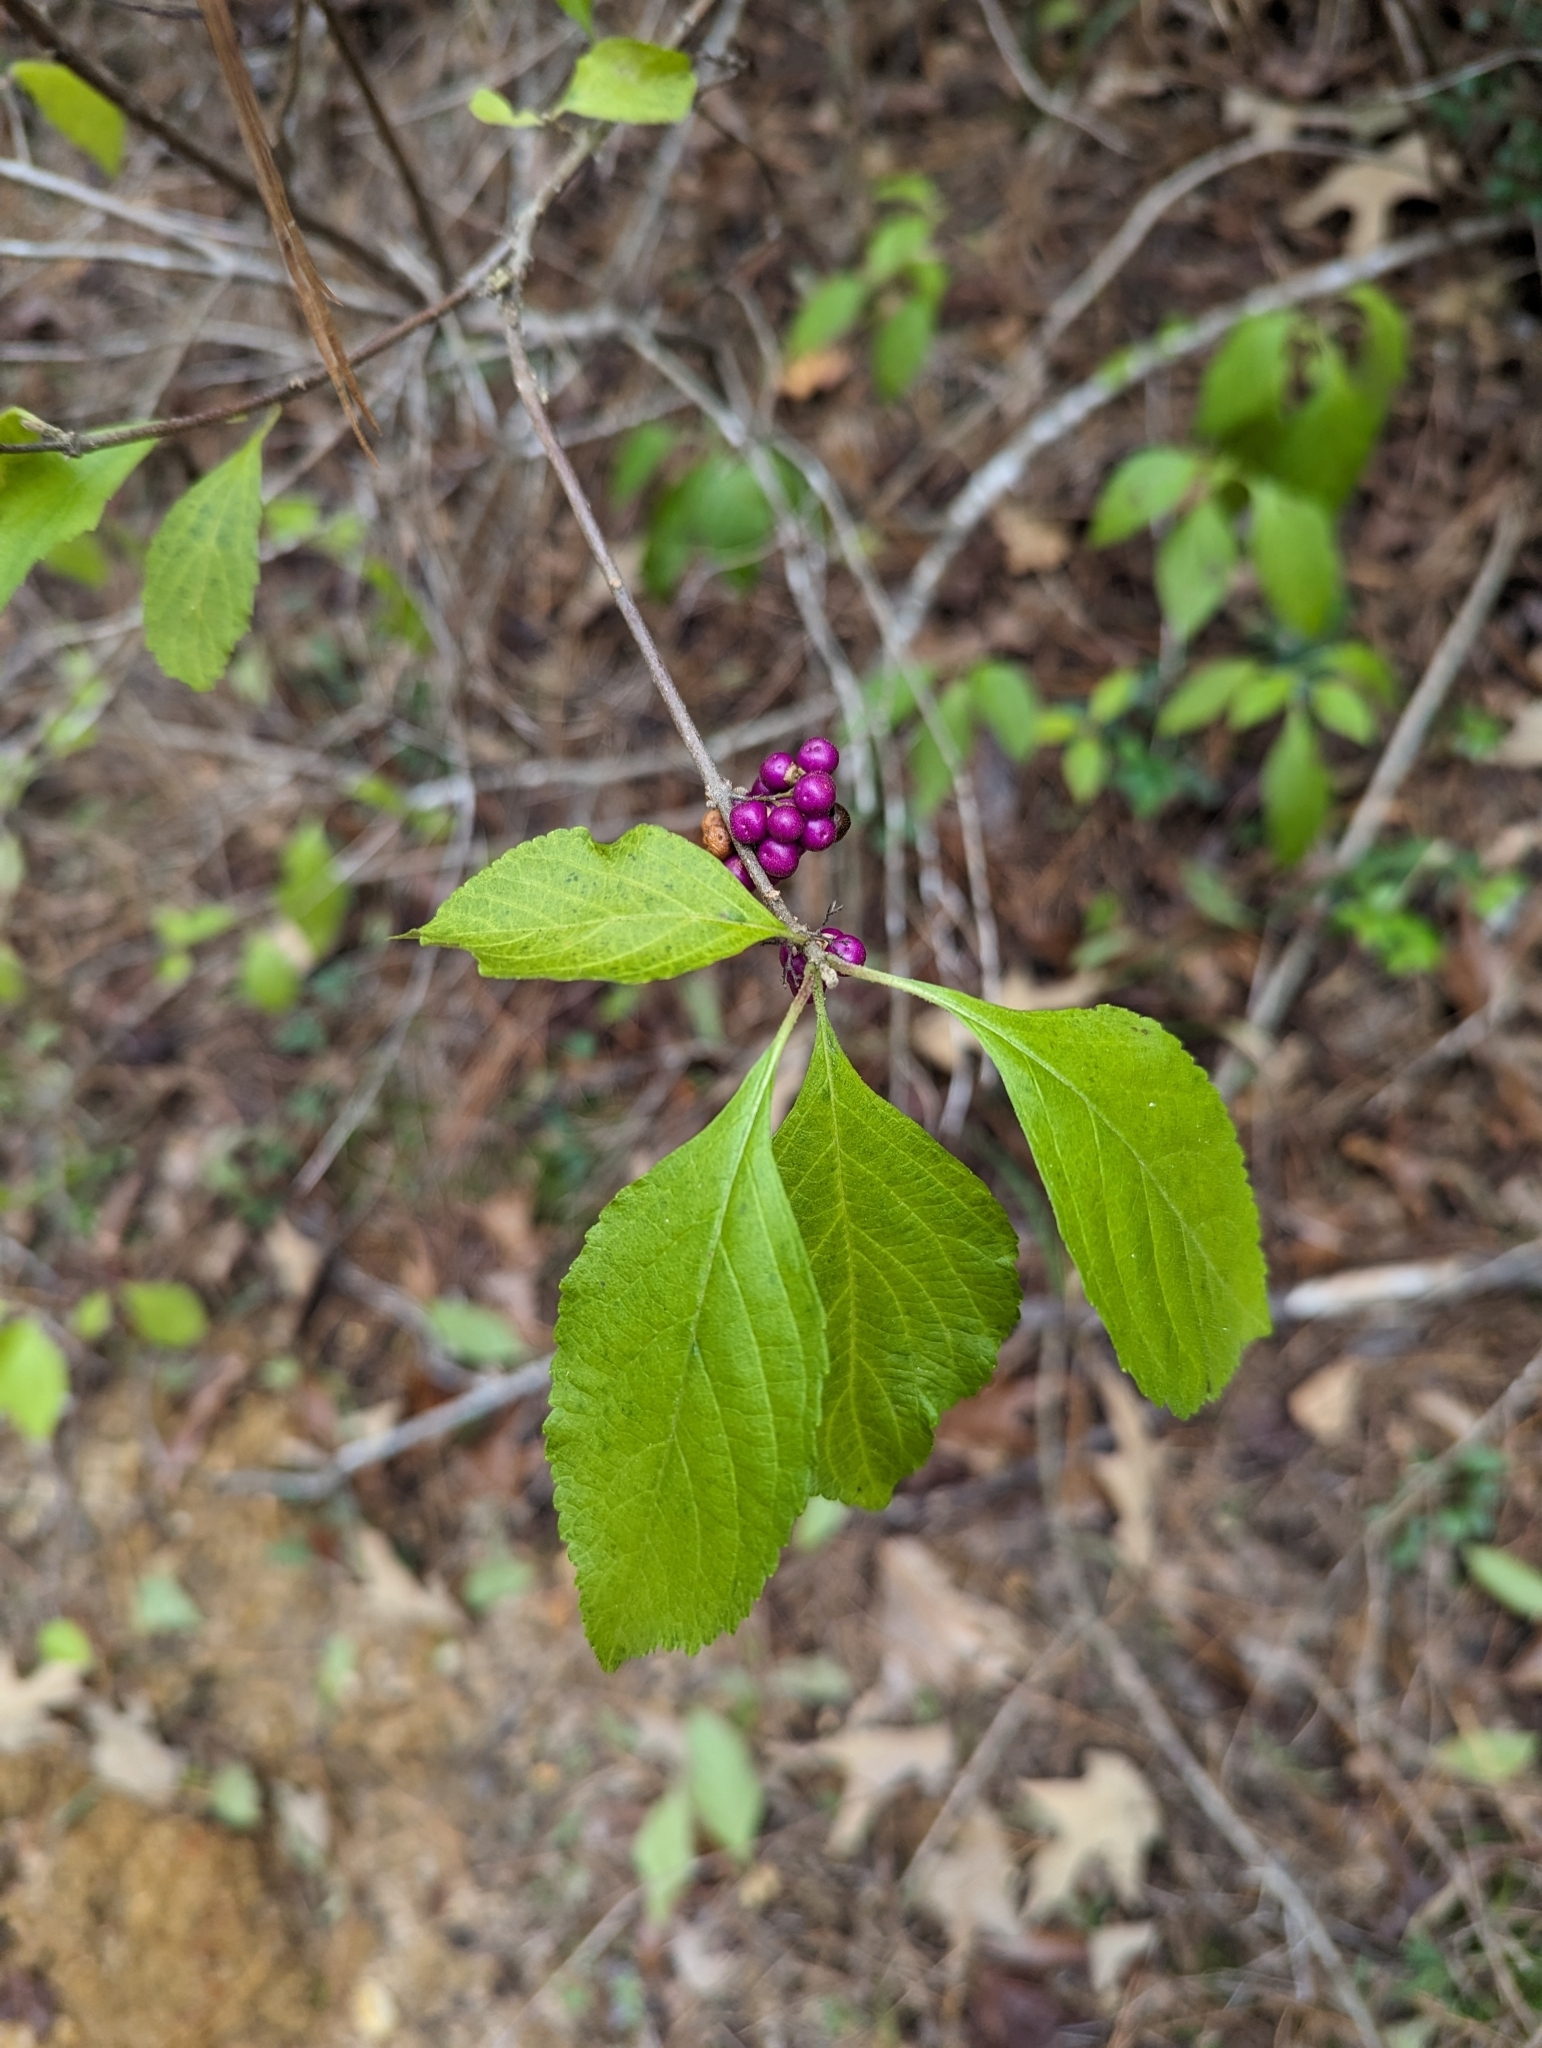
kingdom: Plantae
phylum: Tracheophyta
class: Magnoliopsida
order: Lamiales
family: Lamiaceae
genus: Callicarpa
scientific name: Callicarpa americana
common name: American beautyberry
